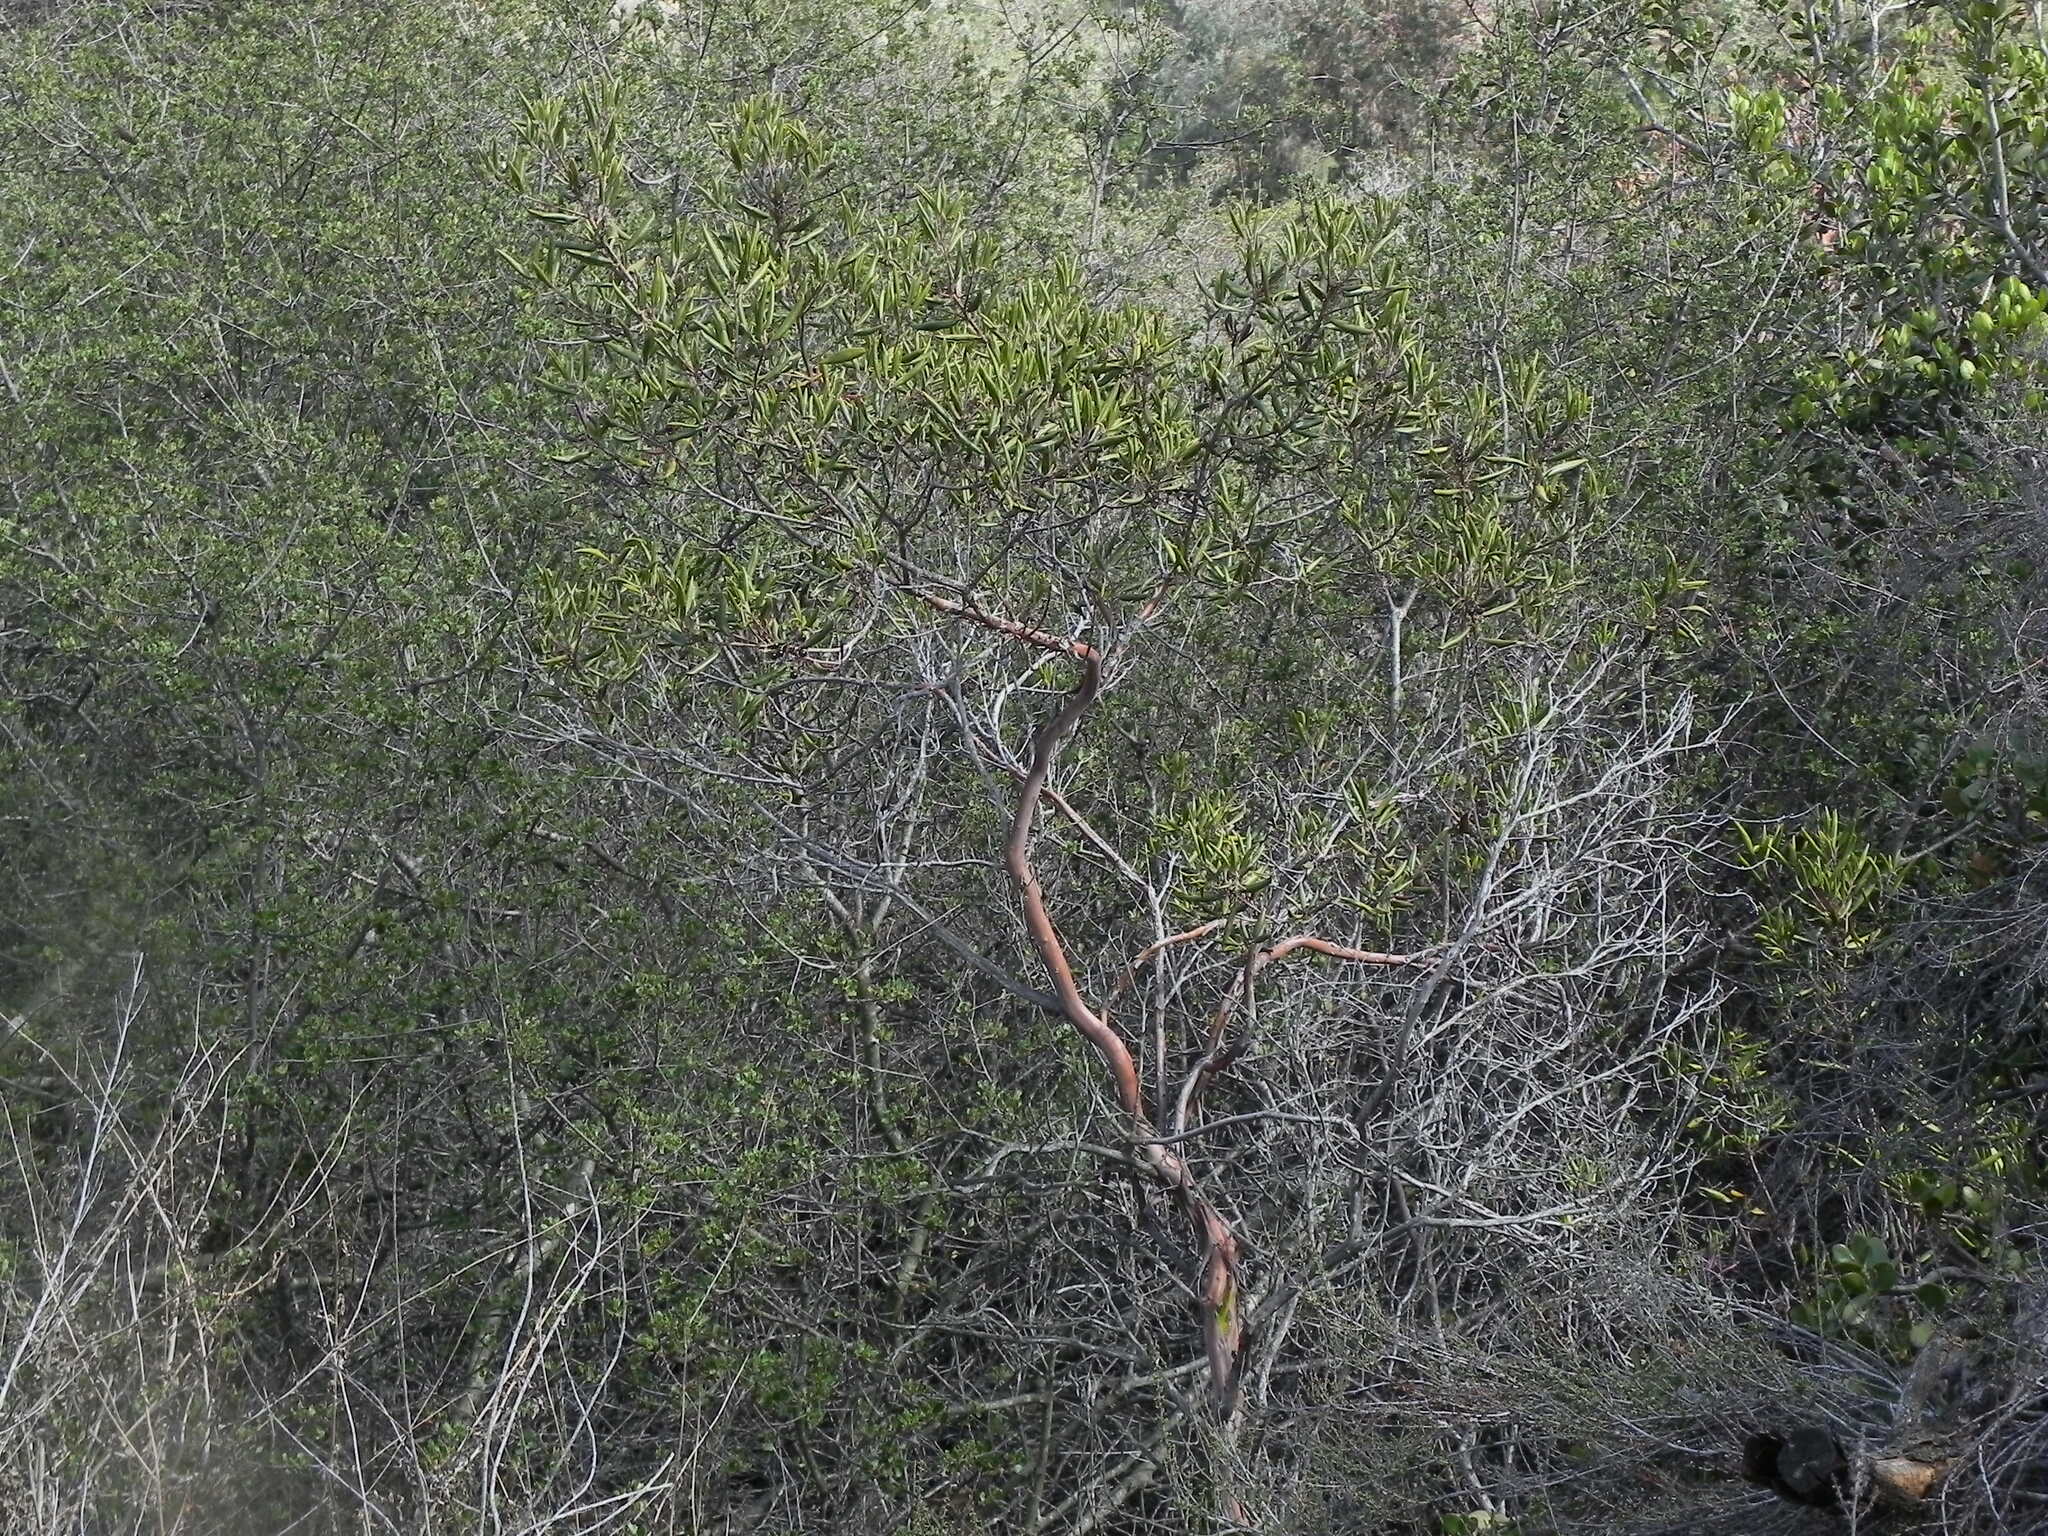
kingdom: Plantae
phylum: Tracheophyta
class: Magnoliopsida
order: Ericales
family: Ericaceae
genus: Arctostaphylos
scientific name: Arctostaphylos bicolor
